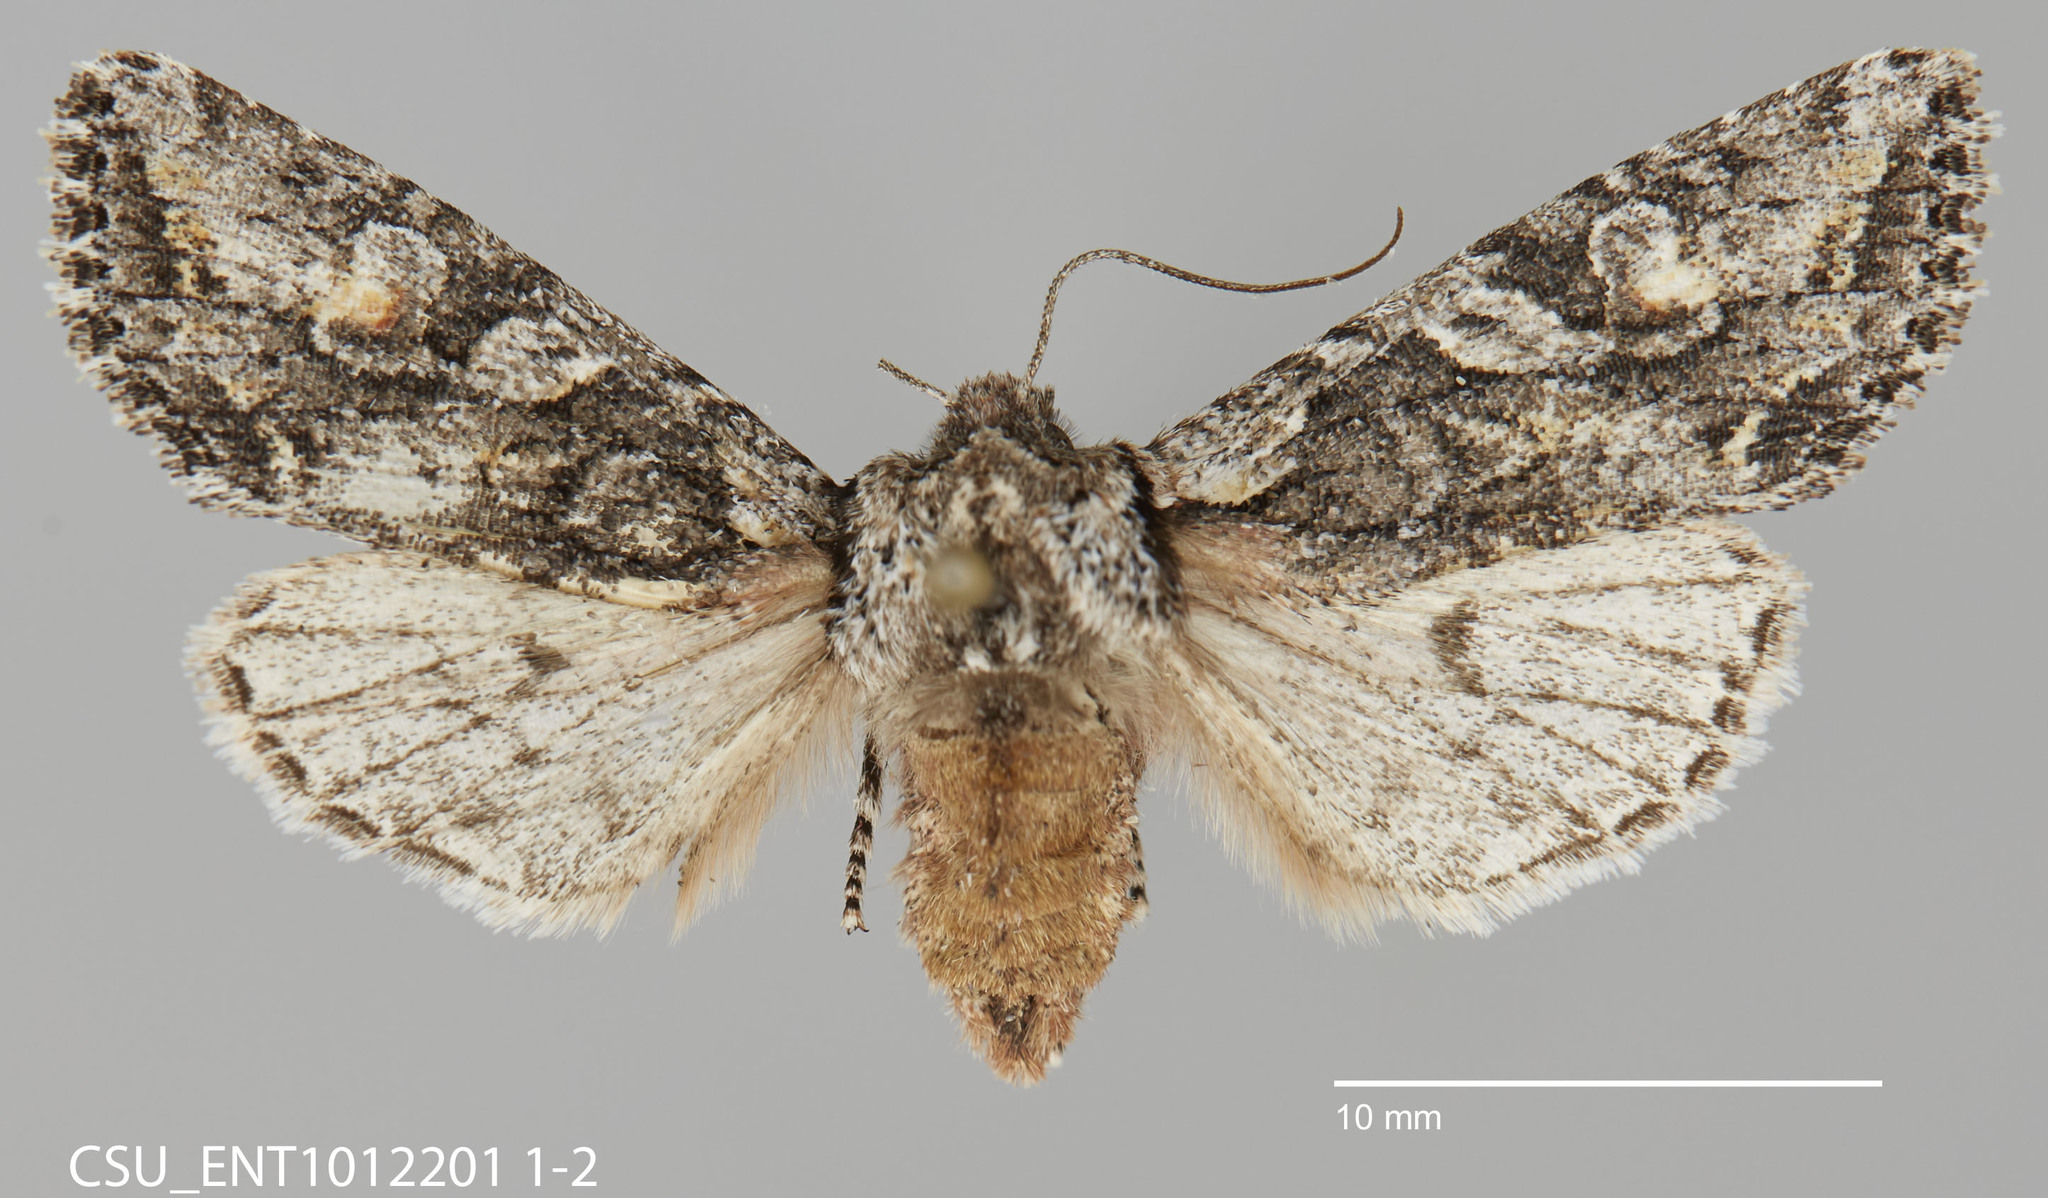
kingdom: Animalia
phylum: Arthropoda
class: Insecta
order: Lepidoptera
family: Noctuidae
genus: Egira
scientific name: Egira hiemalis
